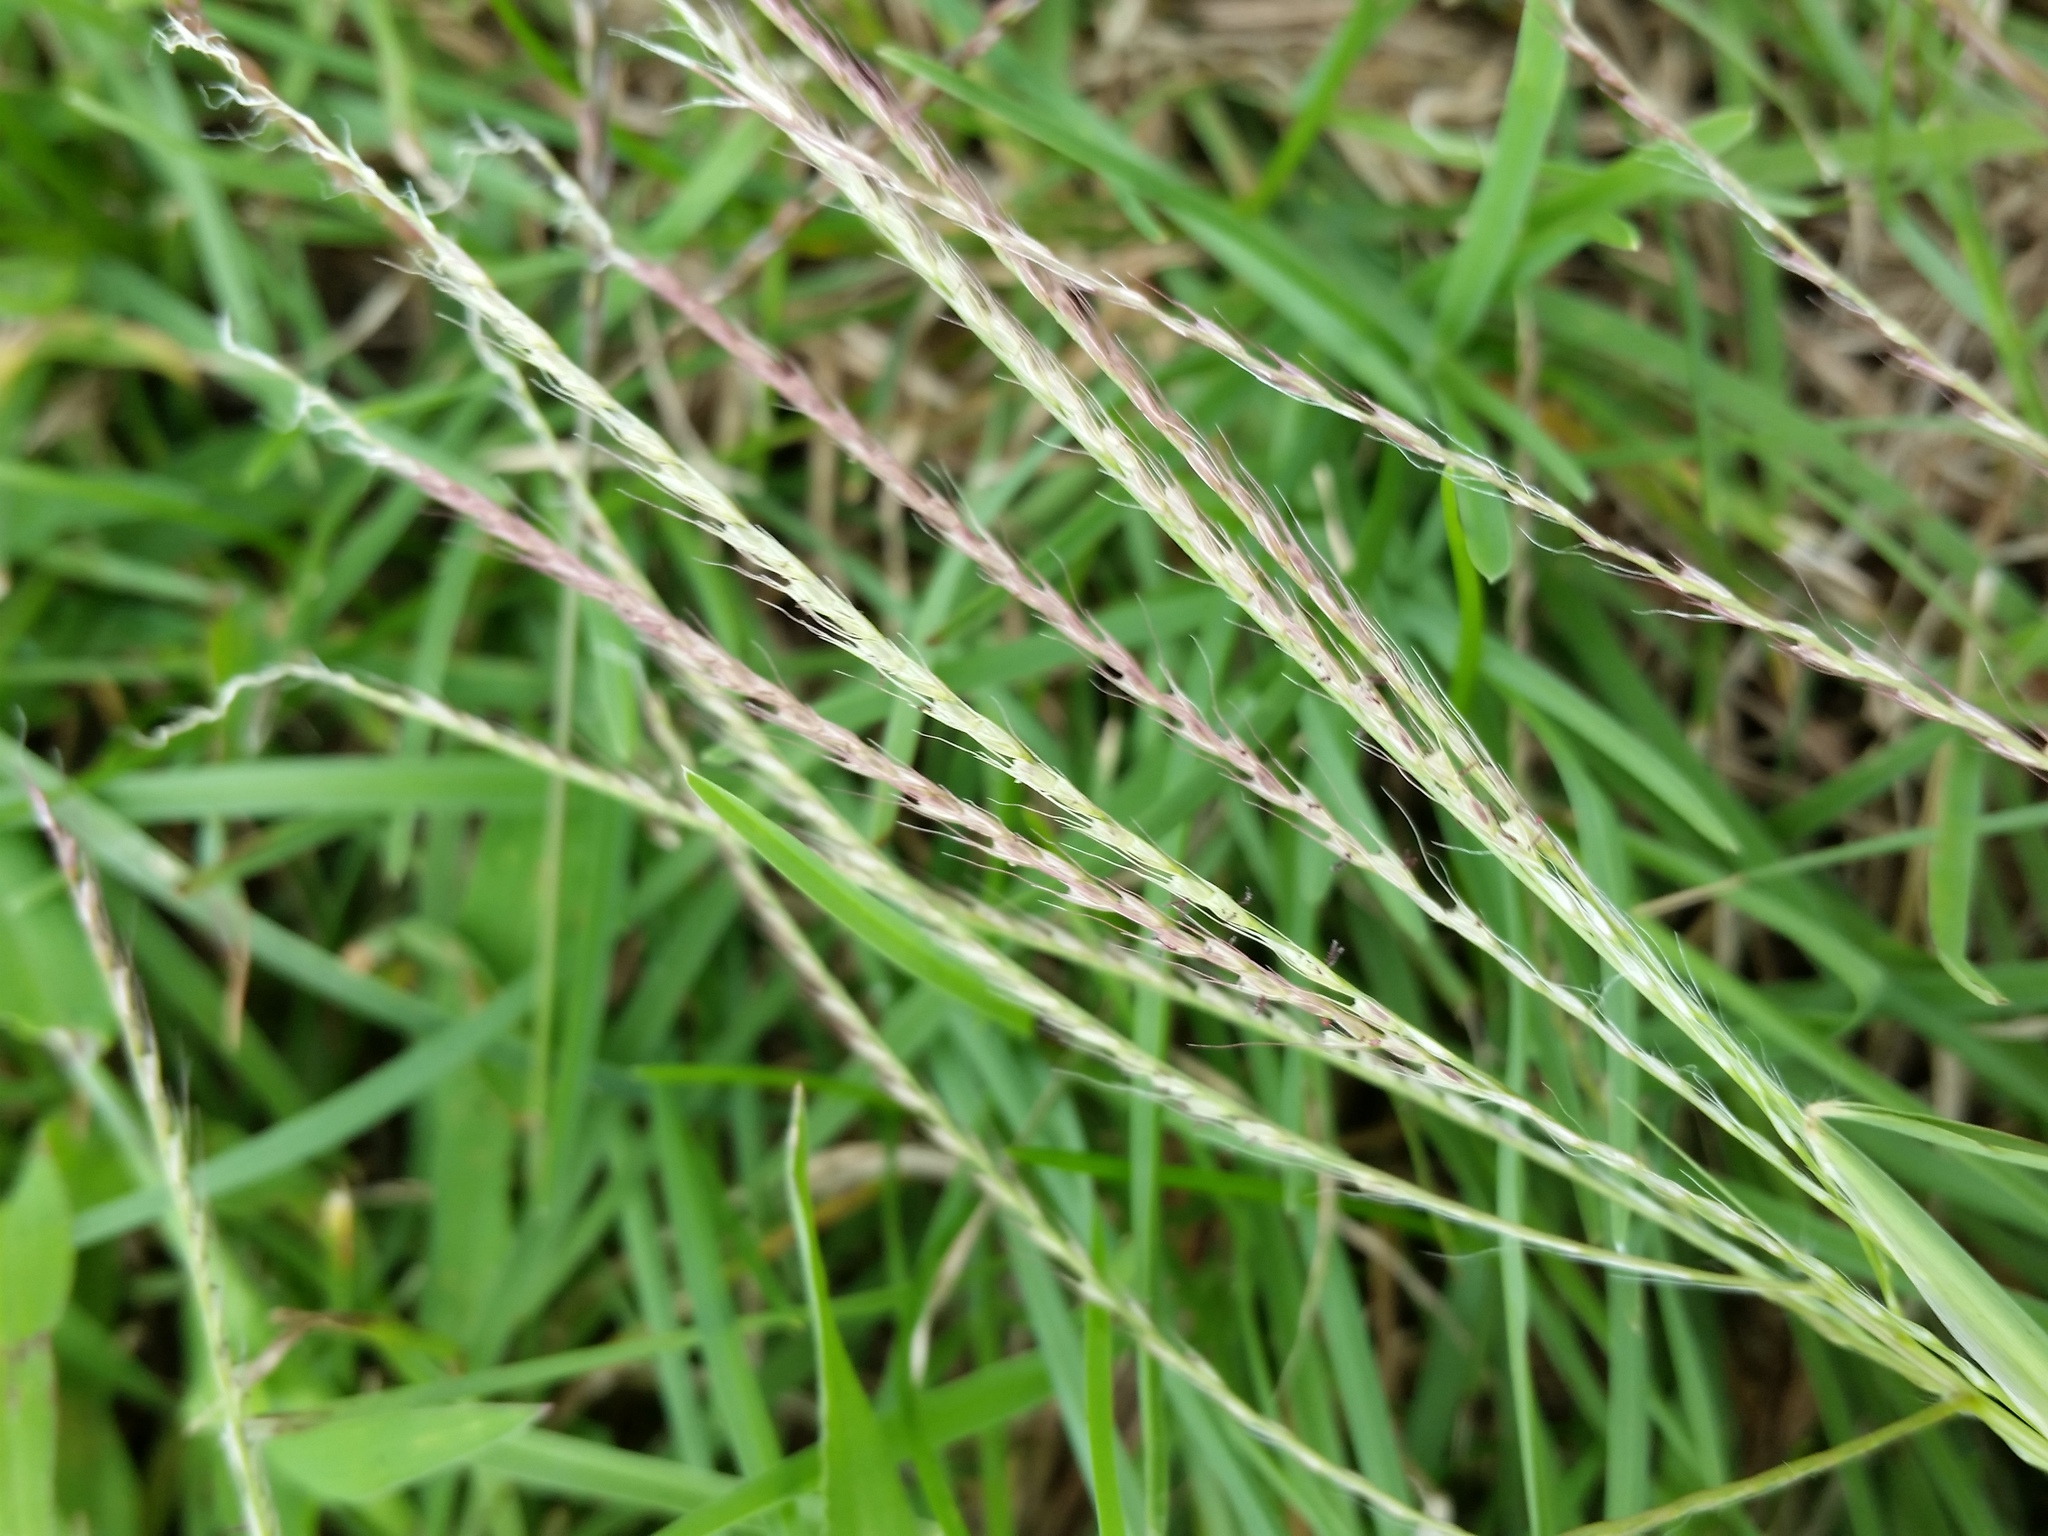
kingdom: Plantae
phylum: Tracheophyta
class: Liliopsida
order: Poales
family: Poaceae
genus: Chloris
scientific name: Chloris verticillata
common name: Tumble windmill grass
